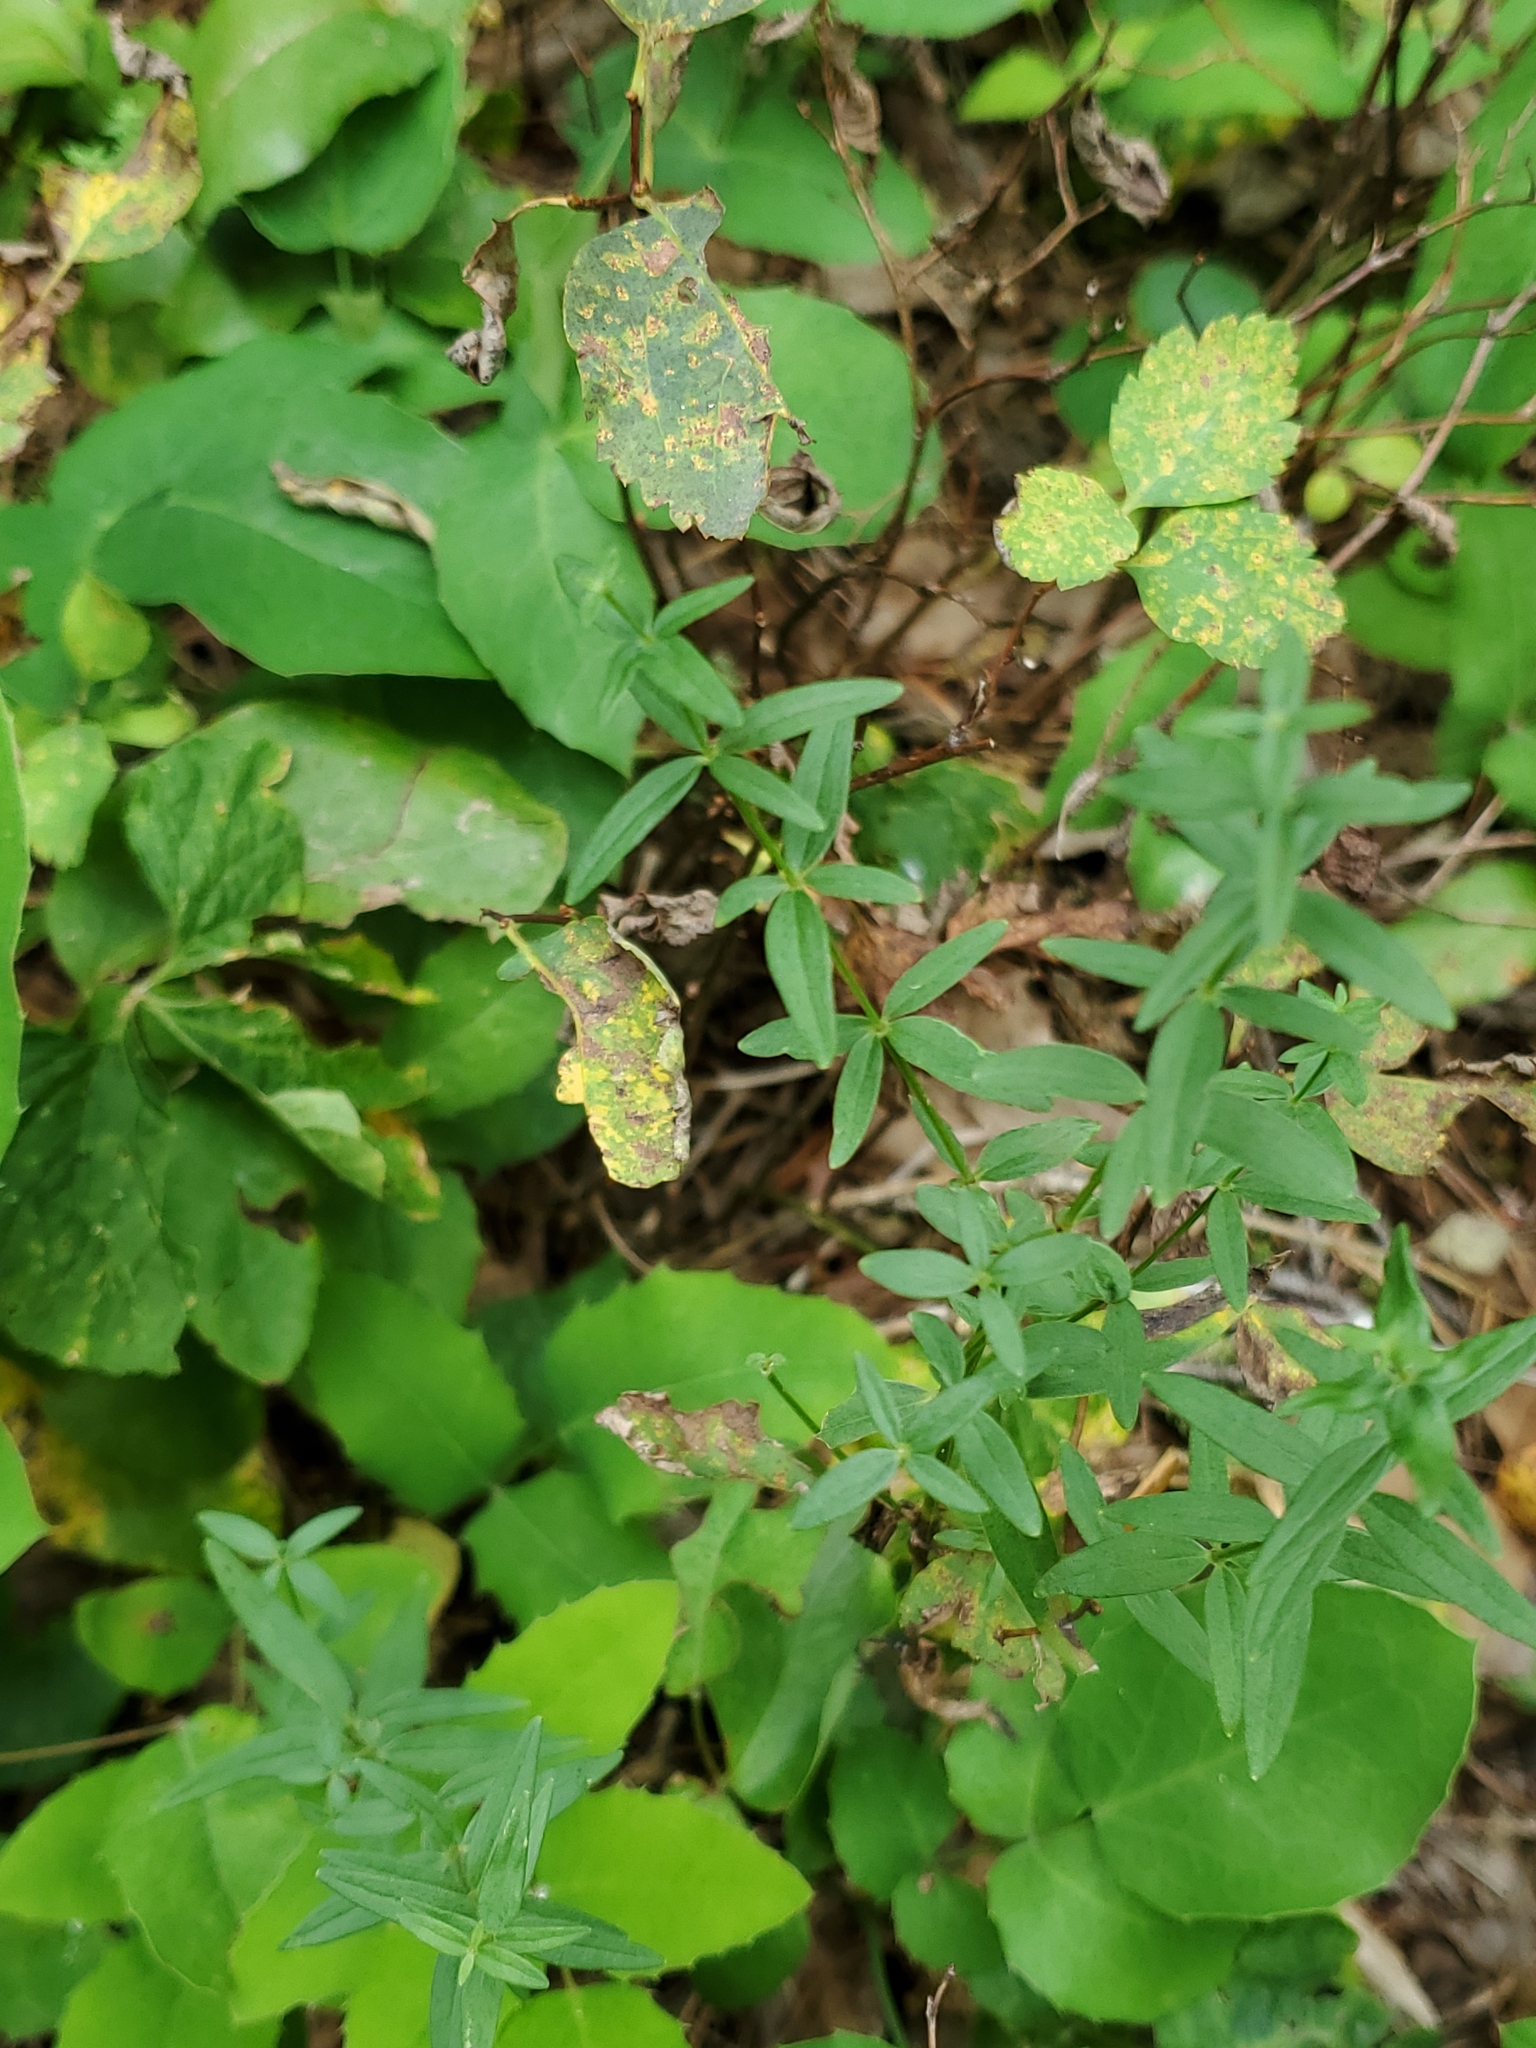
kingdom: Plantae
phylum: Tracheophyta
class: Magnoliopsida
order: Gentianales
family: Rubiaceae
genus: Galium
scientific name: Galium boreale
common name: Northern bedstraw
